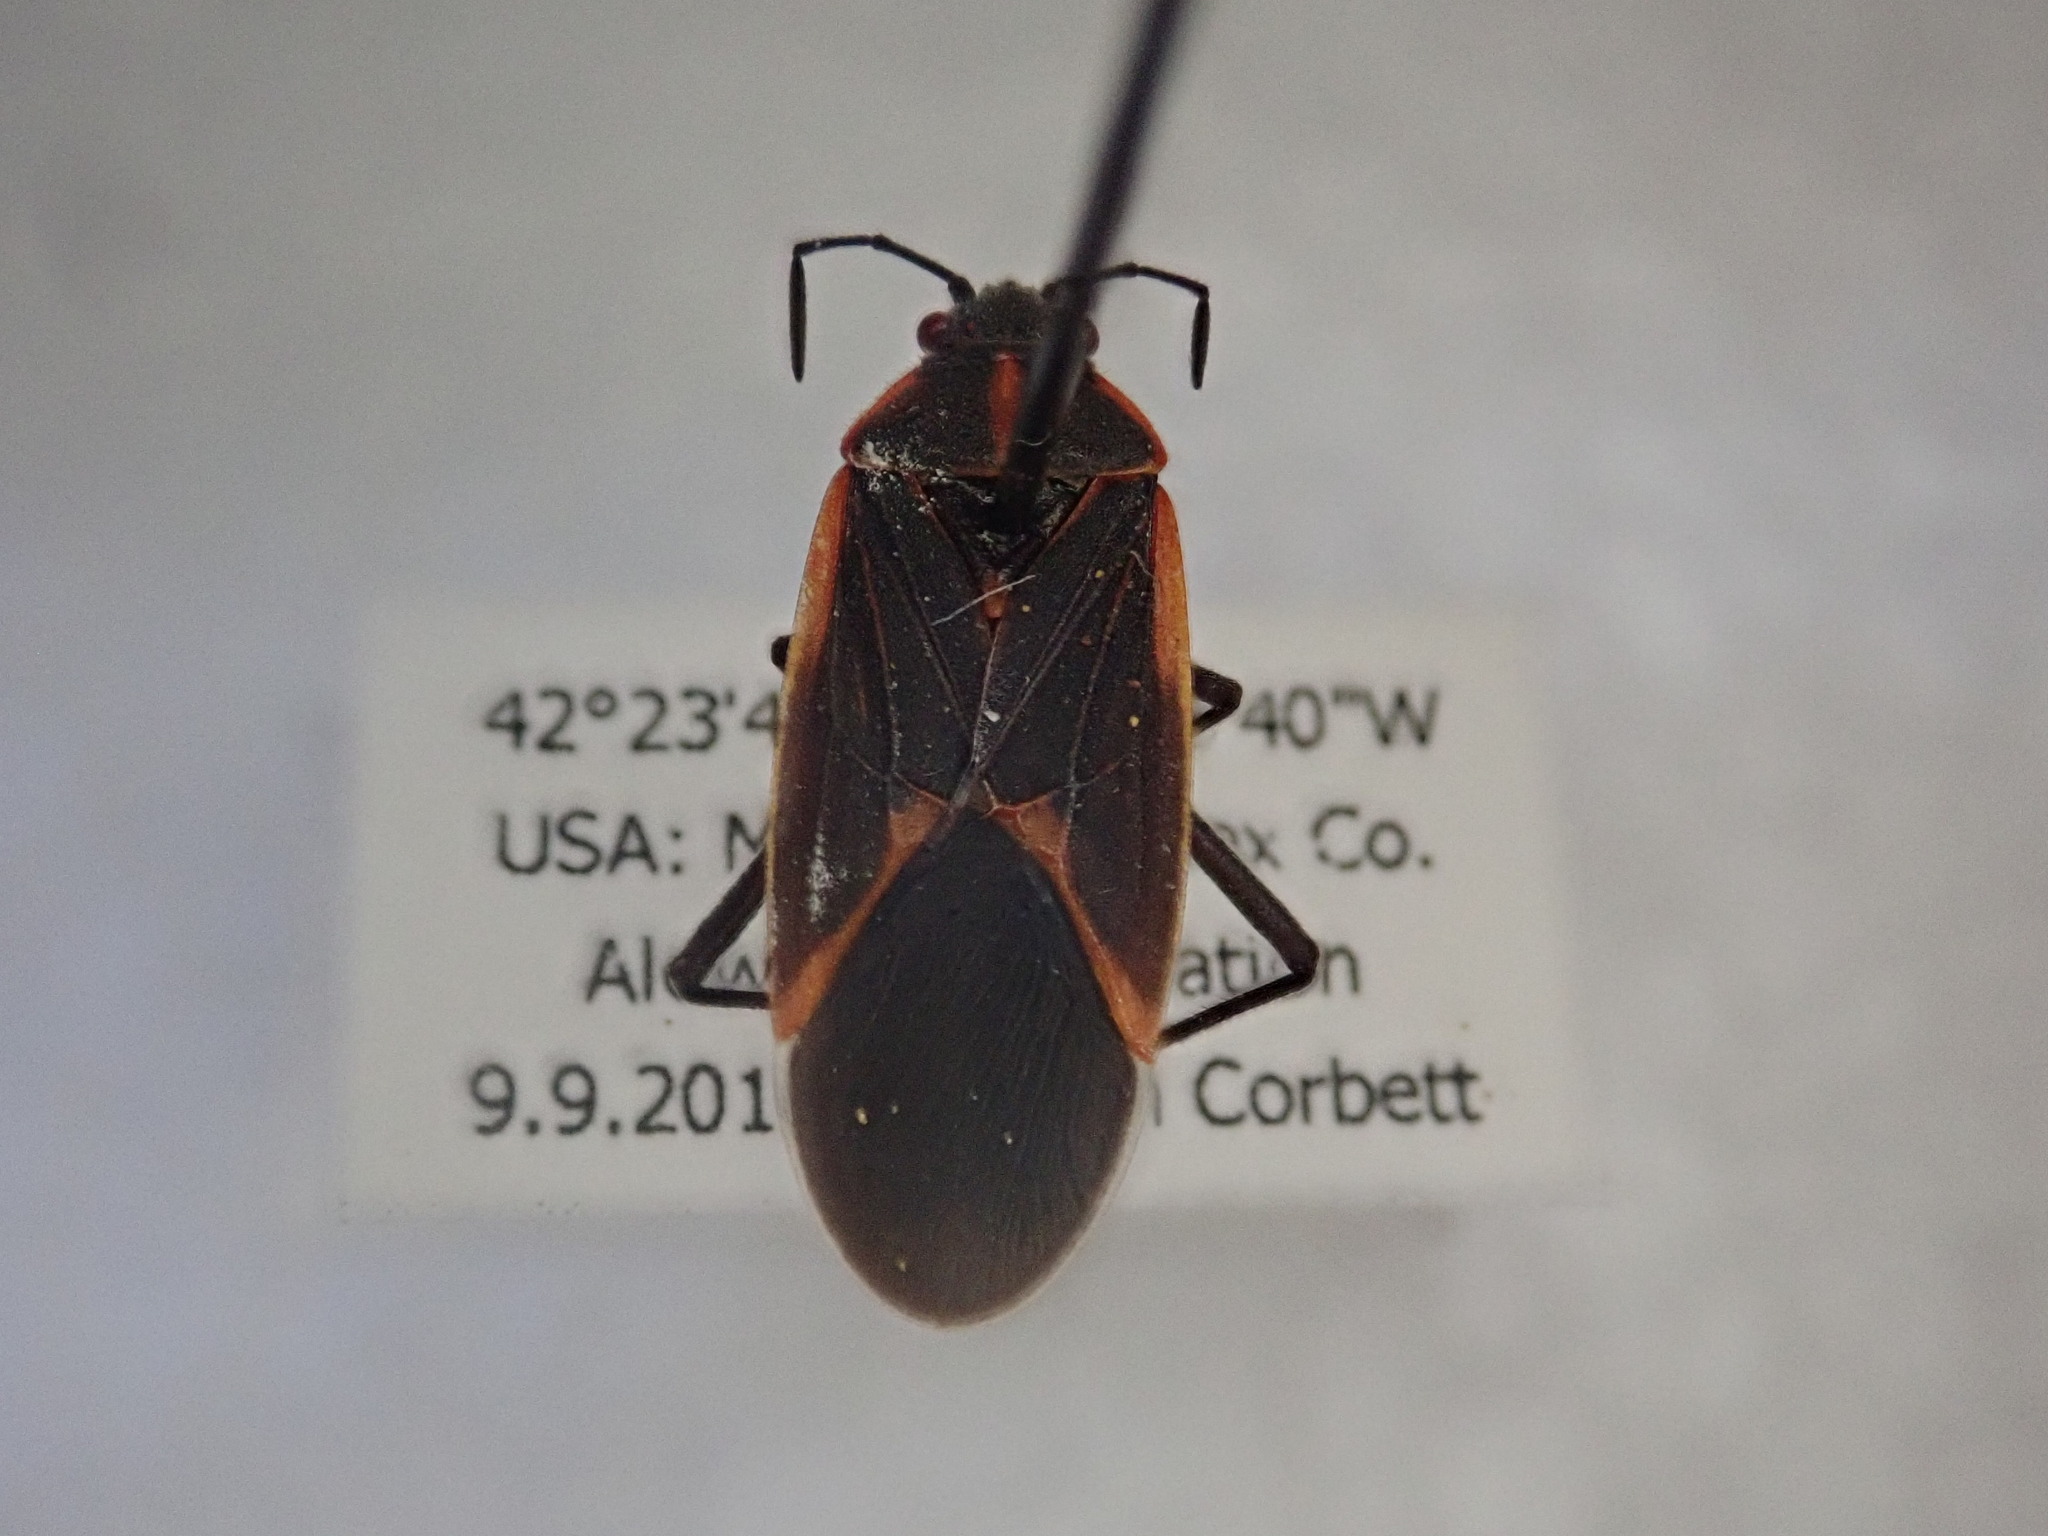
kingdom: Animalia
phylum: Arthropoda
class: Insecta
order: Hemiptera
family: Rhopalidae
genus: Boisea
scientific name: Boisea trivittata
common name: Boxelder bug
